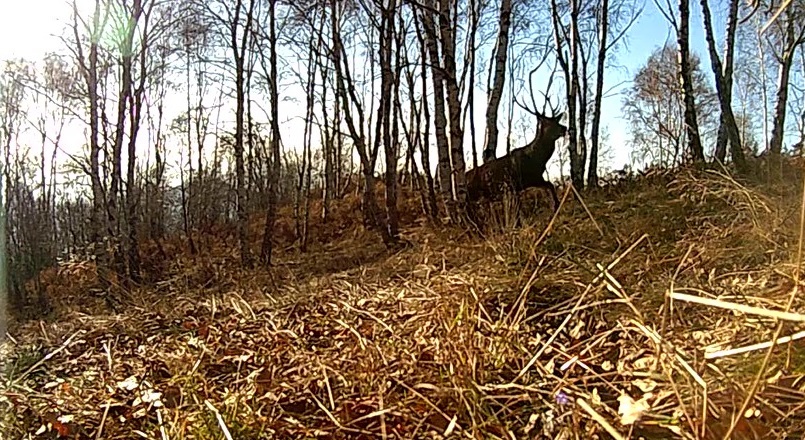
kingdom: Animalia
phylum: Chordata
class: Mammalia
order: Artiodactyla
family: Cervidae
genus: Cervus
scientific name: Cervus elaphus
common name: Red deer
